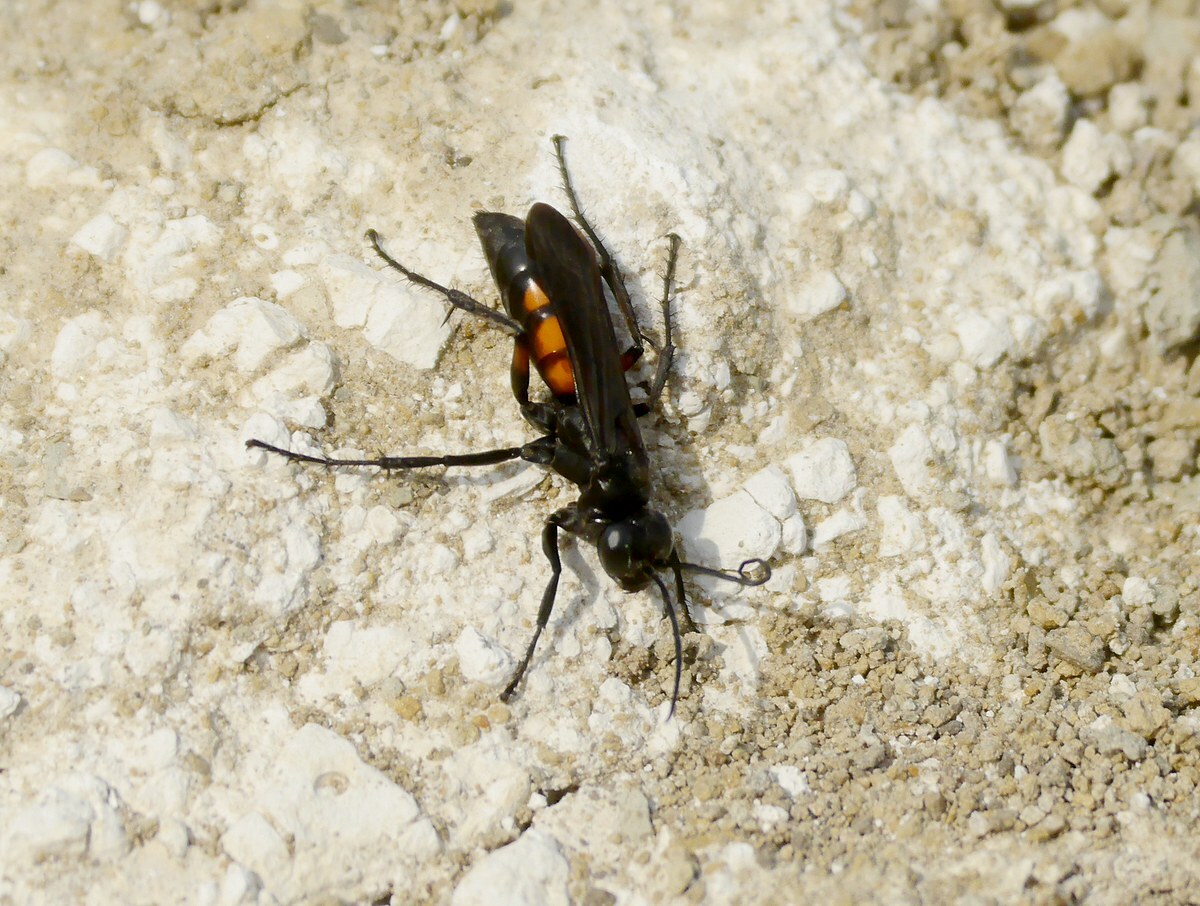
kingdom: Animalia
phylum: Arthropoda
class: Insecta
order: Hymenoptera
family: Pompilidae
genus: Anoplius
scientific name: Anoplius viaticus
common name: Black banded spider wasp
